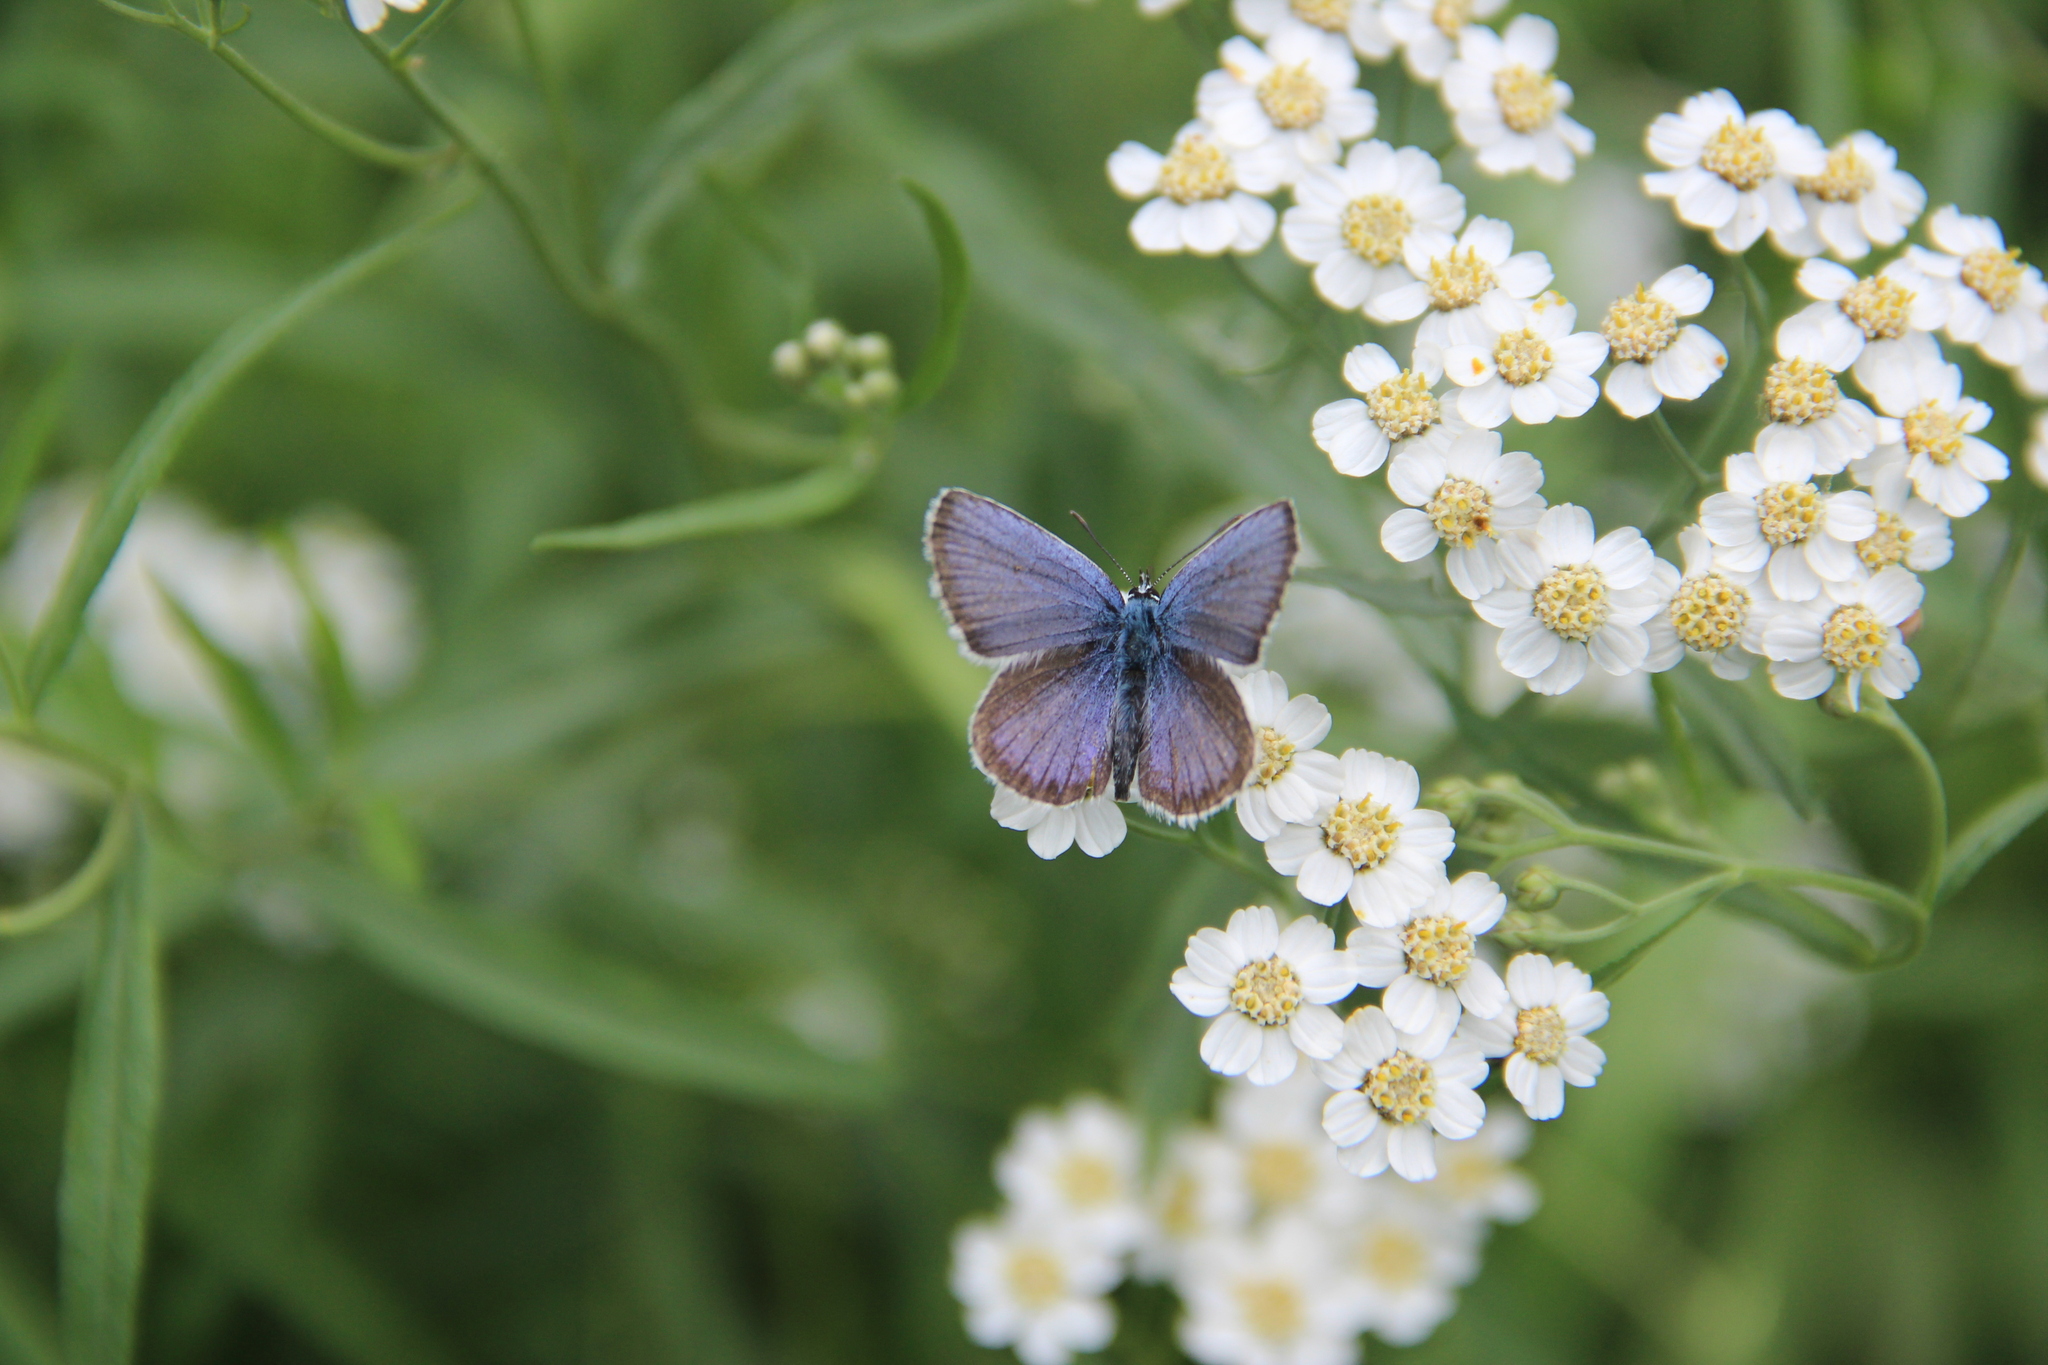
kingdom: Animalia
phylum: Arthropoda
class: Insecta
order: Lepidoptera
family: Lycaenidae
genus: Plebejus
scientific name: Plebejus argus
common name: Silver-studded blue
